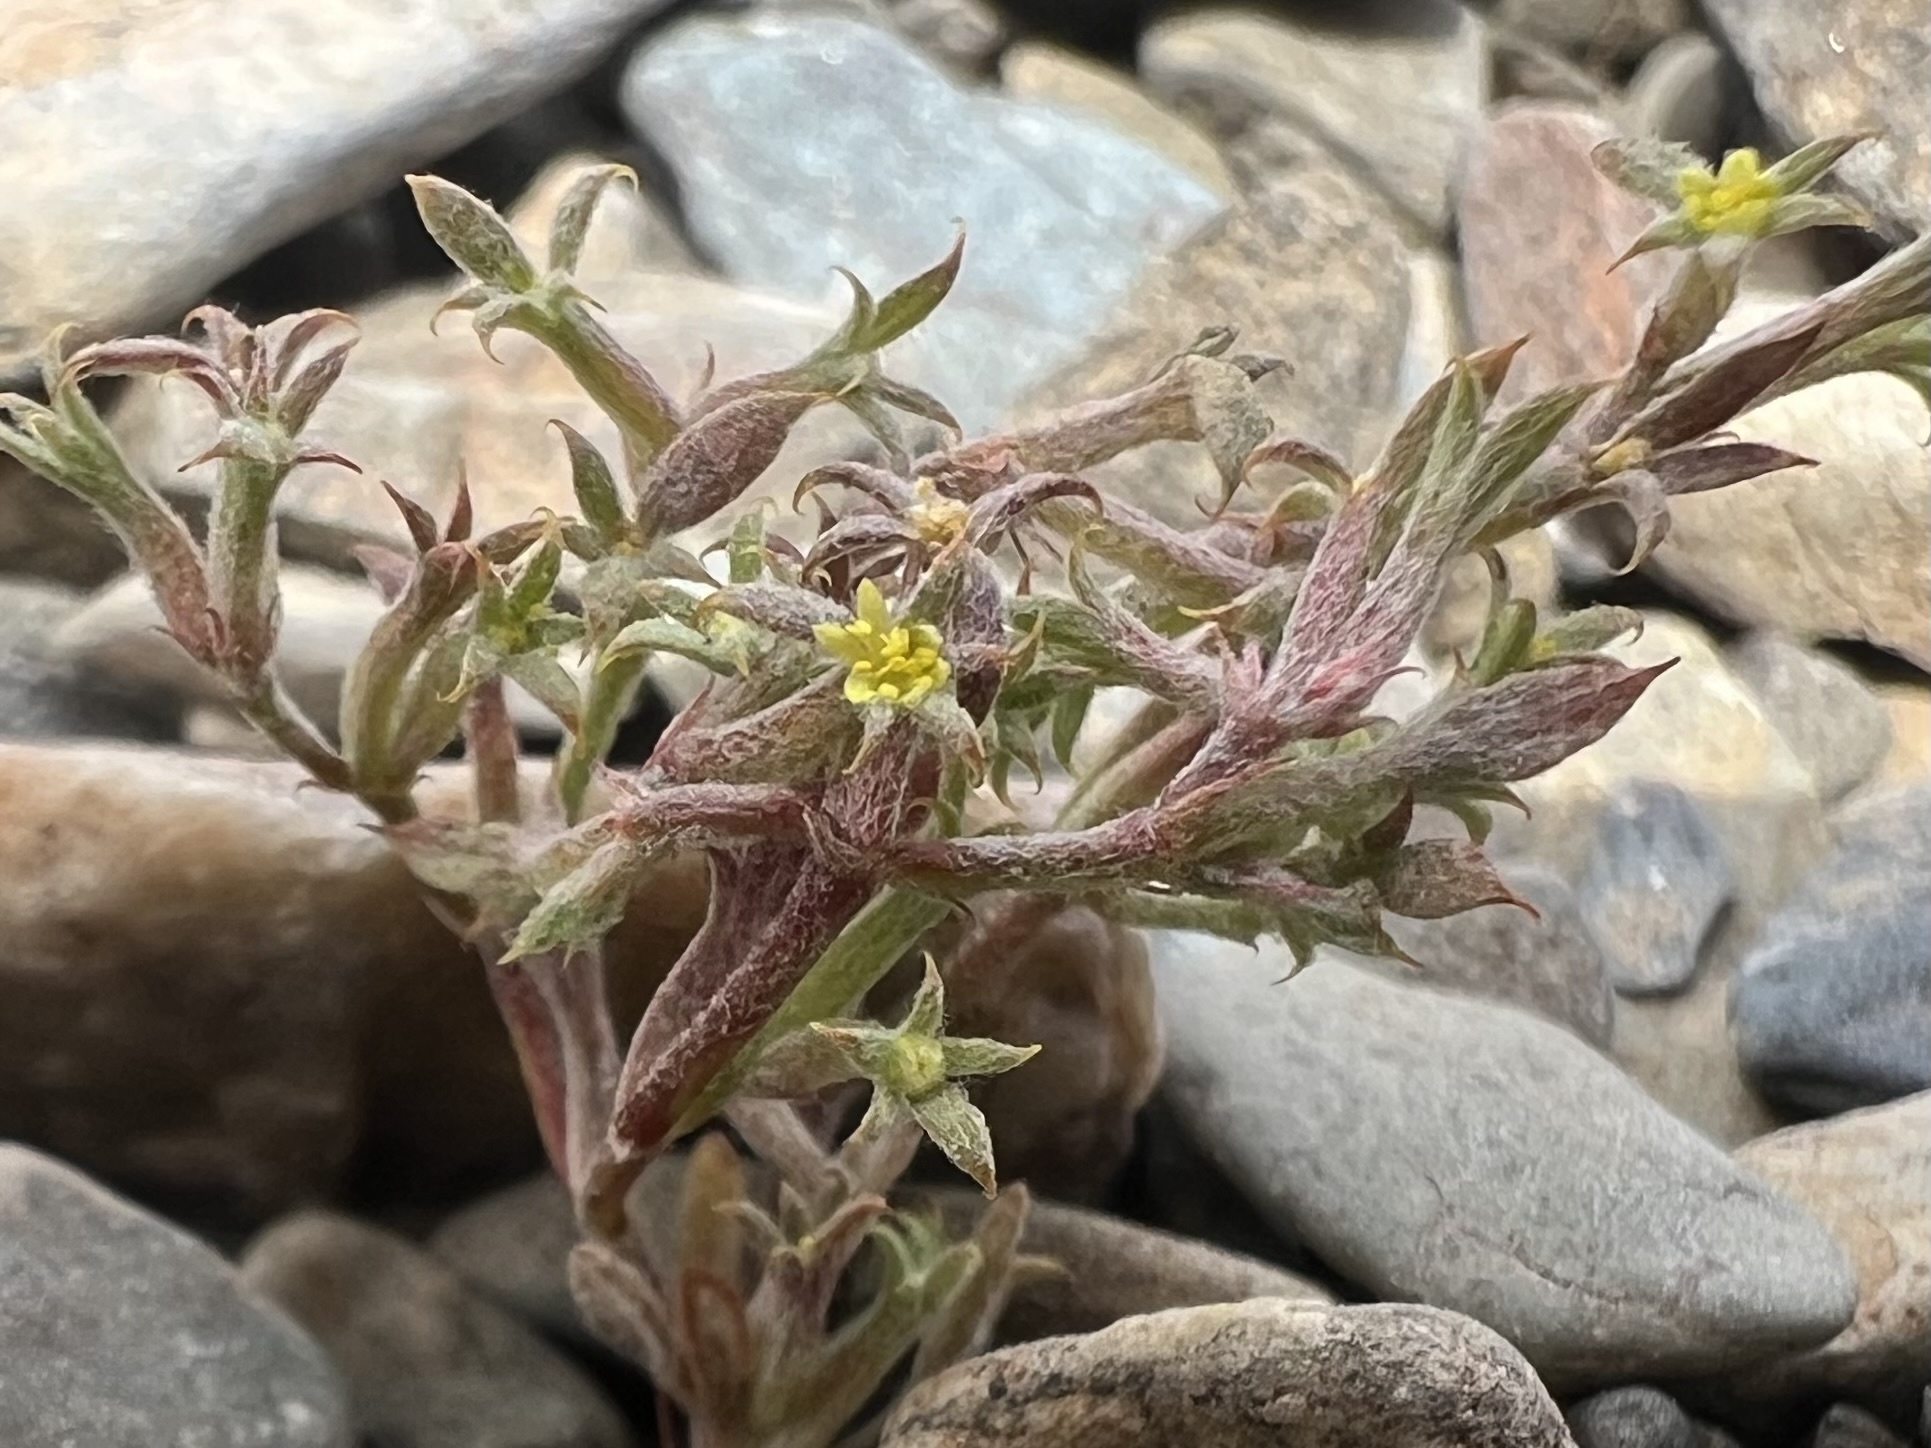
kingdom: Plantae
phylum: Tracheophyta
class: Magnoliopsida
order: Caryophyllales
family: Polygonaceae
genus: Chorizanthe
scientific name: Chorizanthe watsonii
